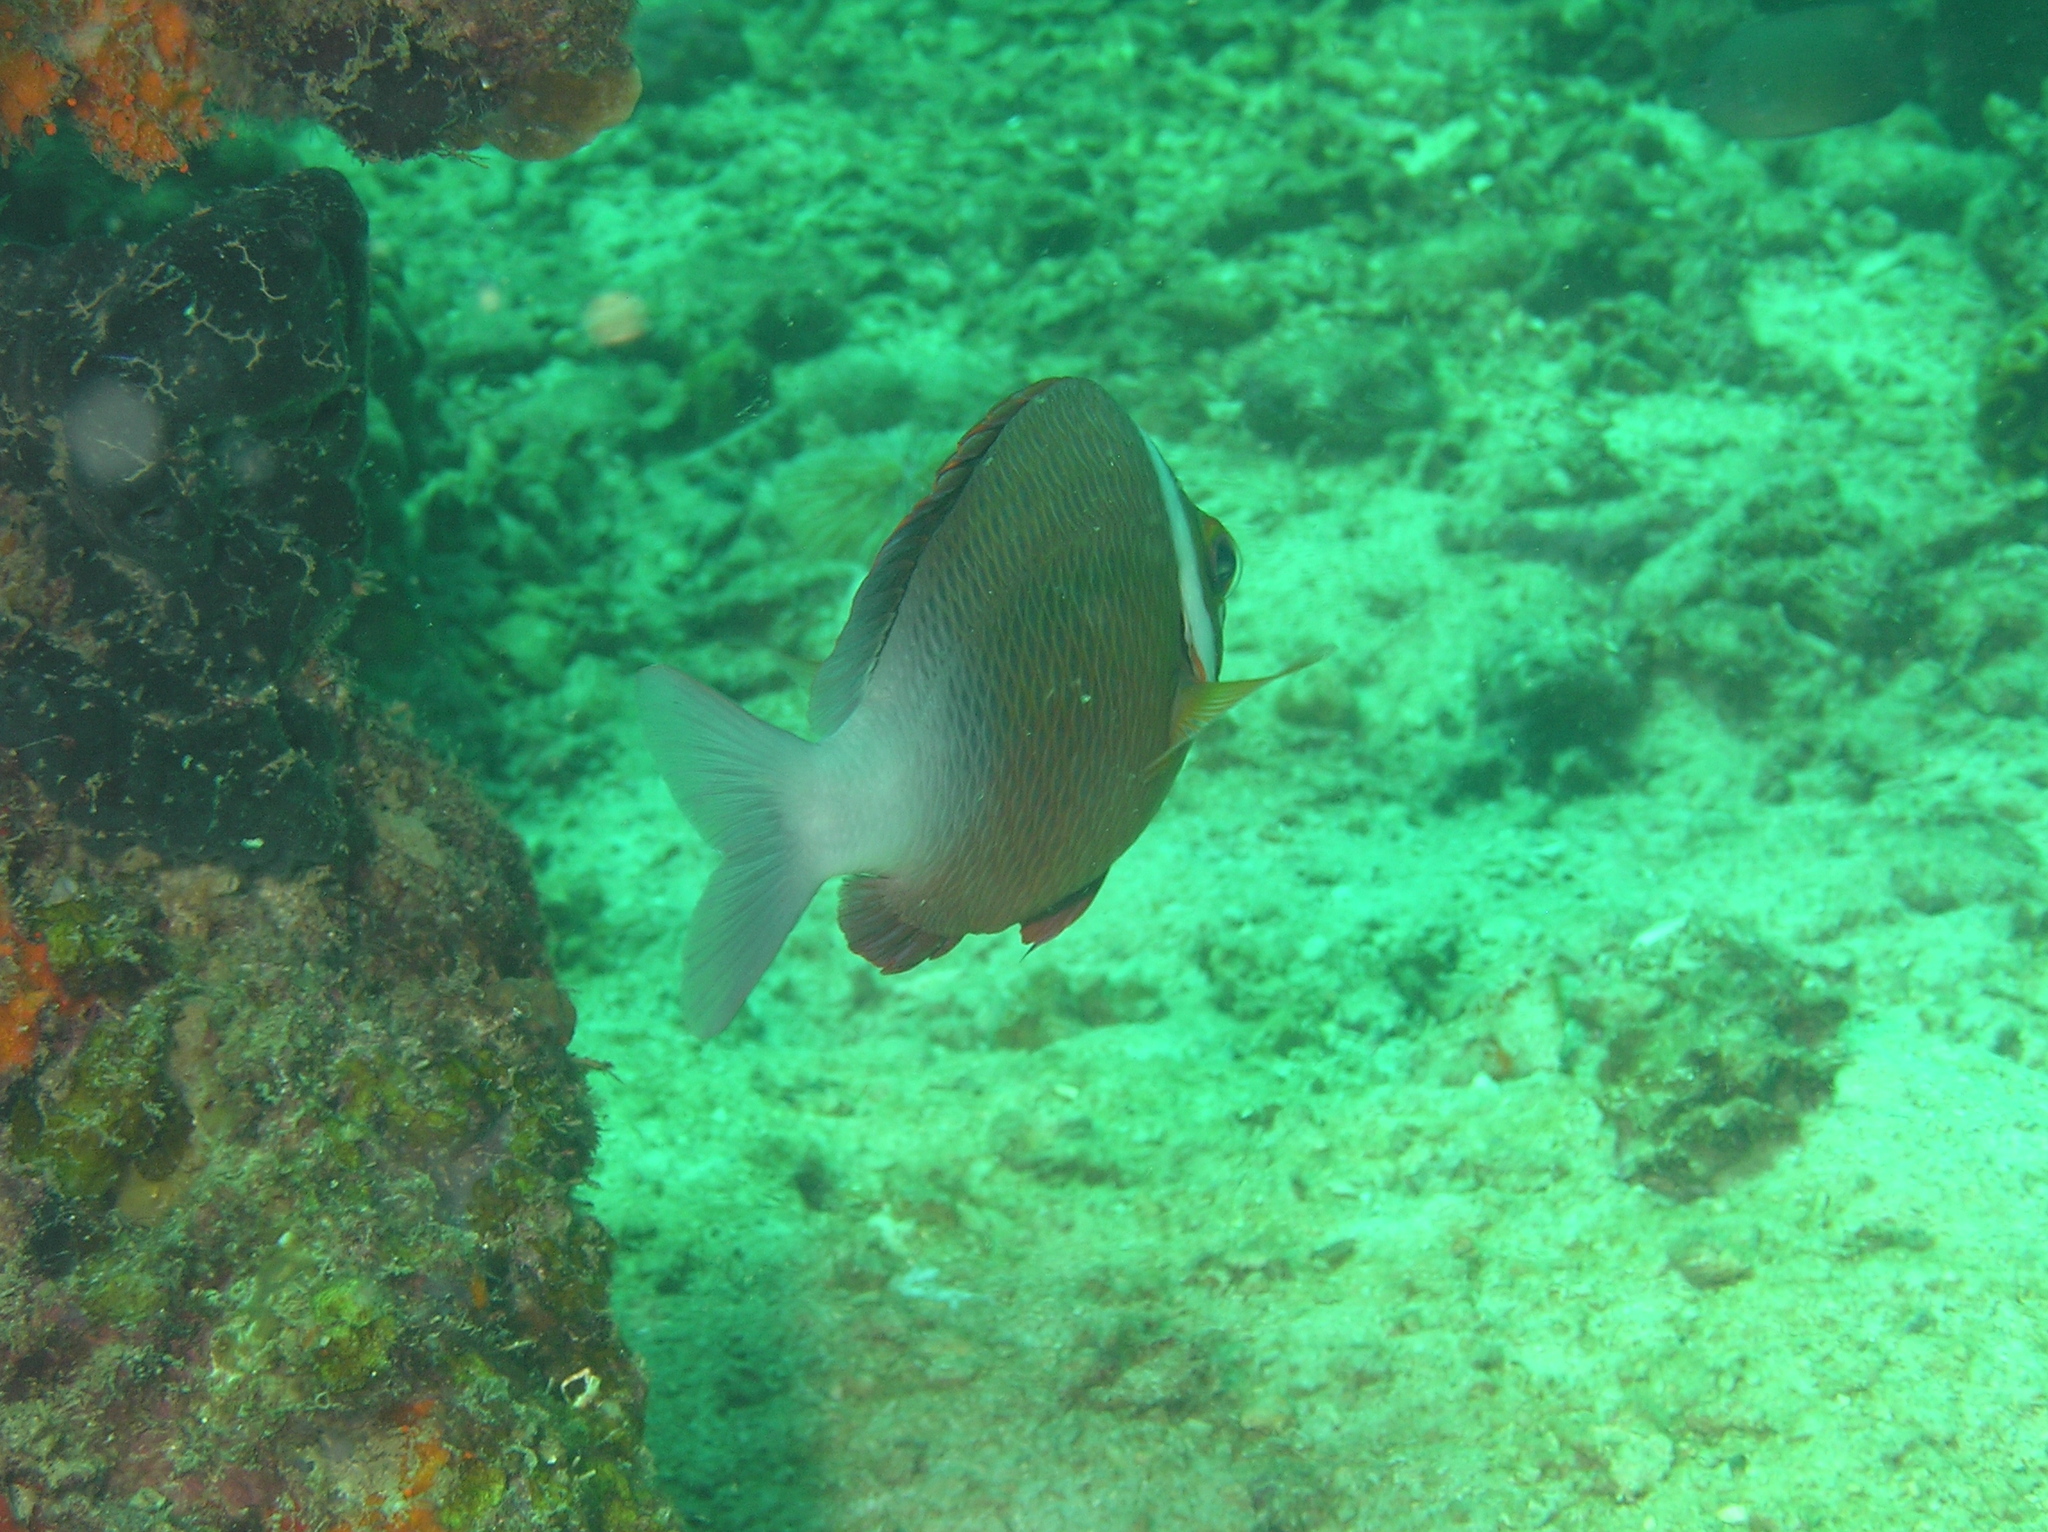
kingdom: Animalia
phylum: Chordata
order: Perciformes
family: Nemipteridae
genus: Scolopsis
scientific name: Scolopsis vosmeri
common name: Whitecheek monocle bream
